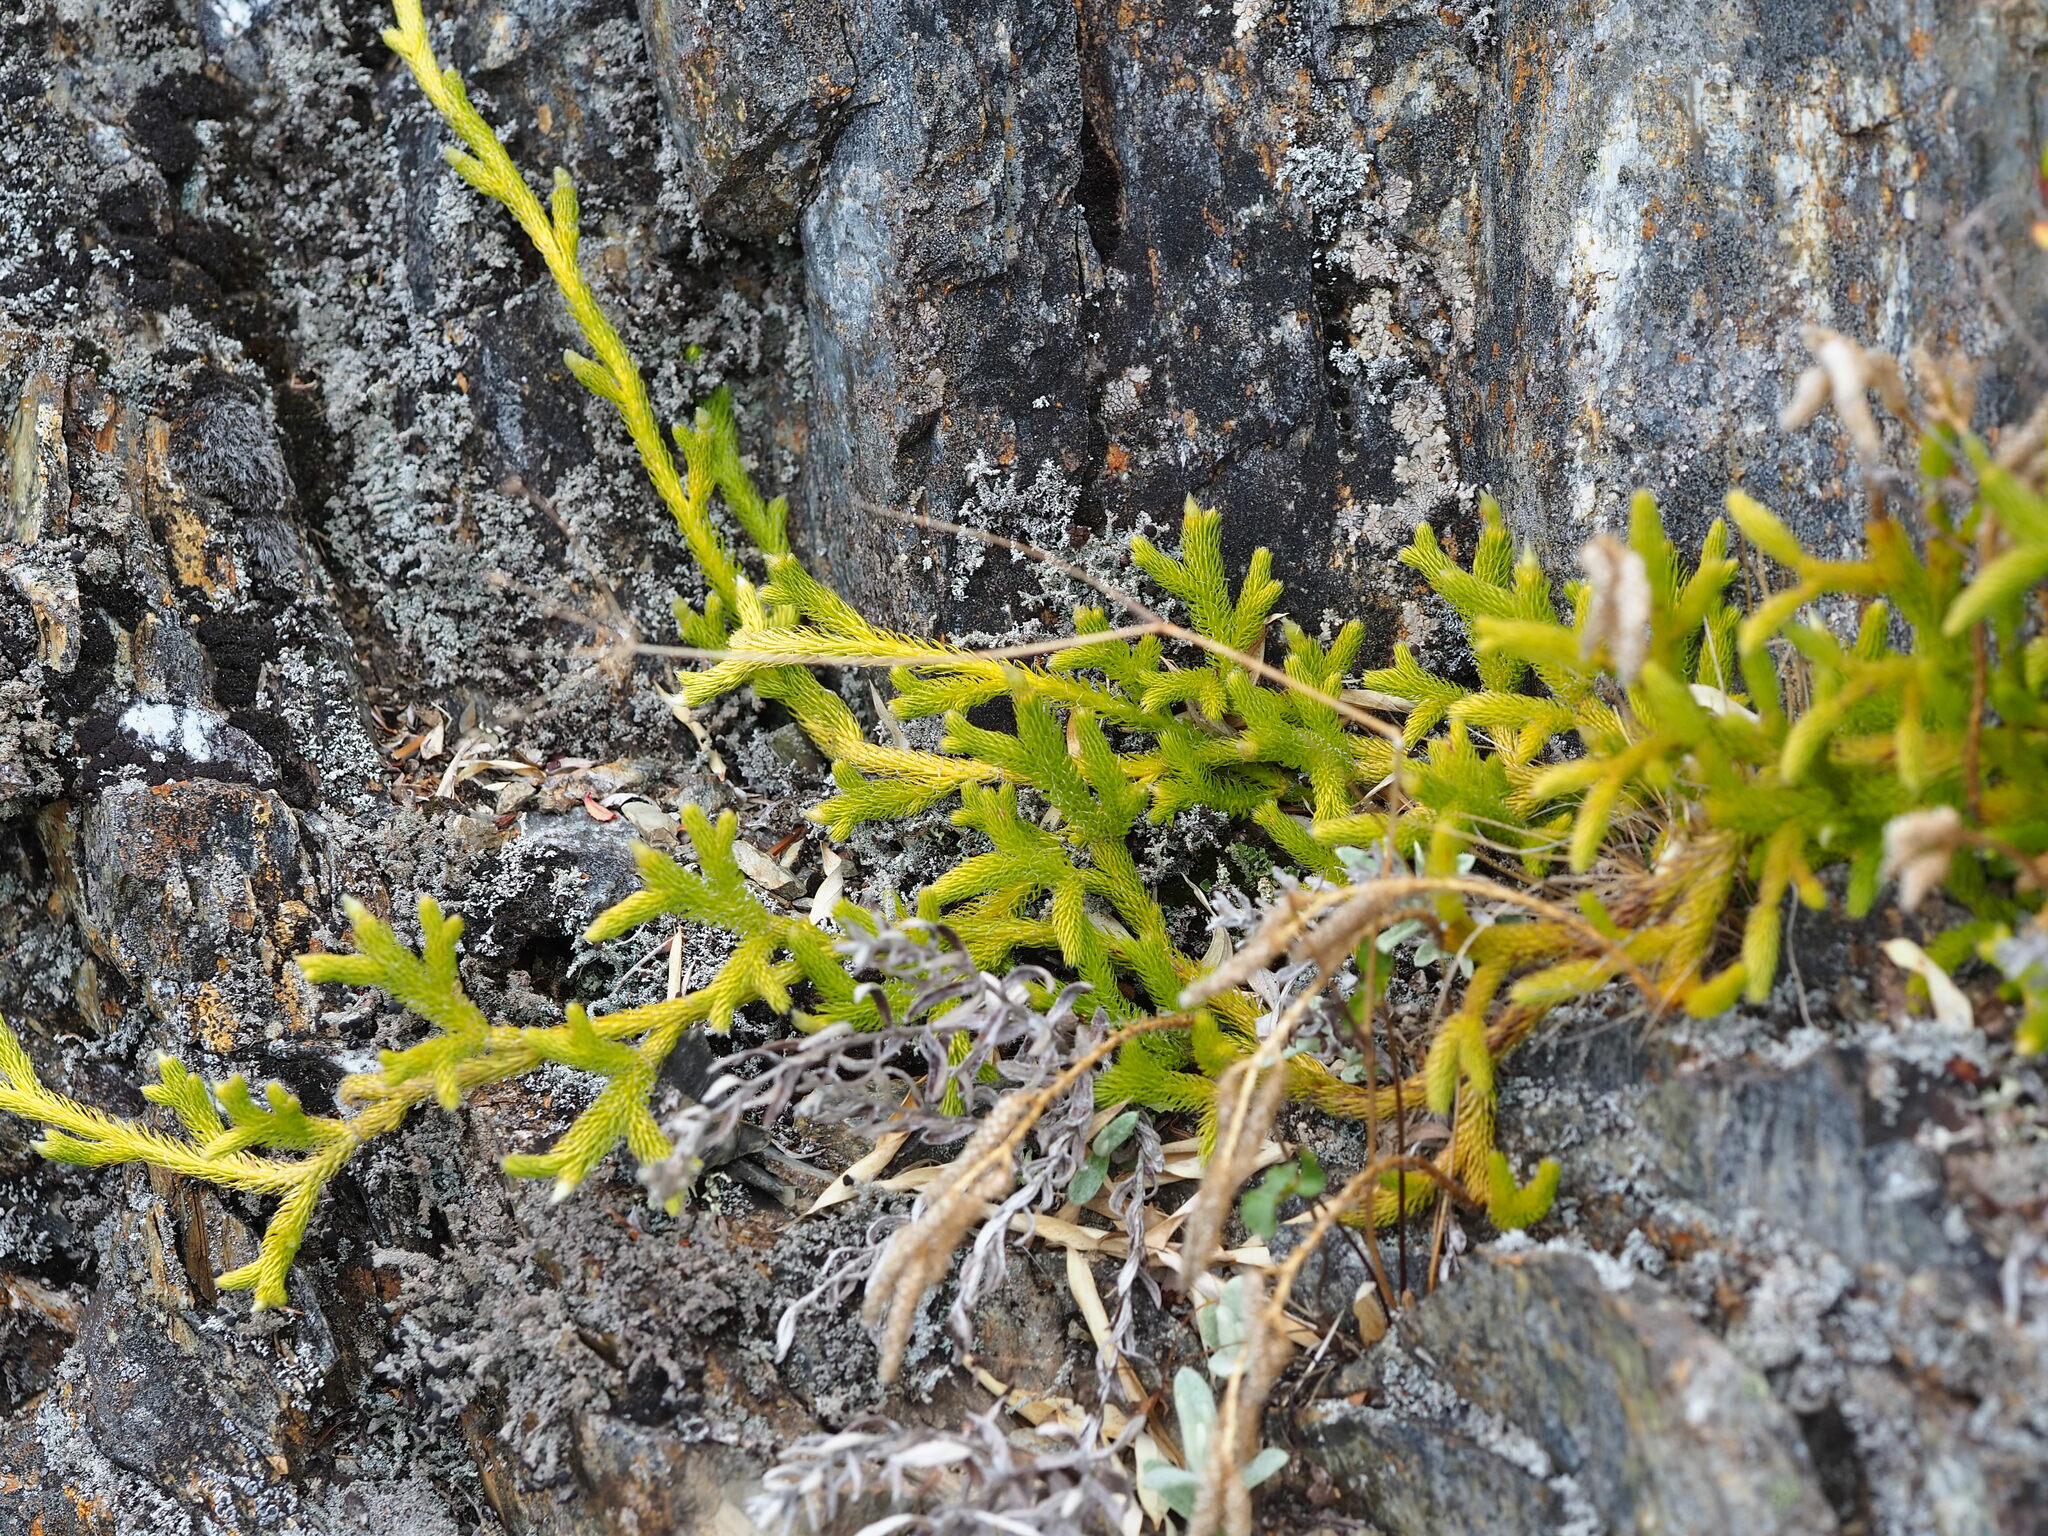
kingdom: Plantae
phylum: Tracheophyta
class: Lycopodiopsida
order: Lycopodiales
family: Lycopodiaceae
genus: Lycopodium
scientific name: Lycopodium clavatum
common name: Stag's-horn clubmoss
